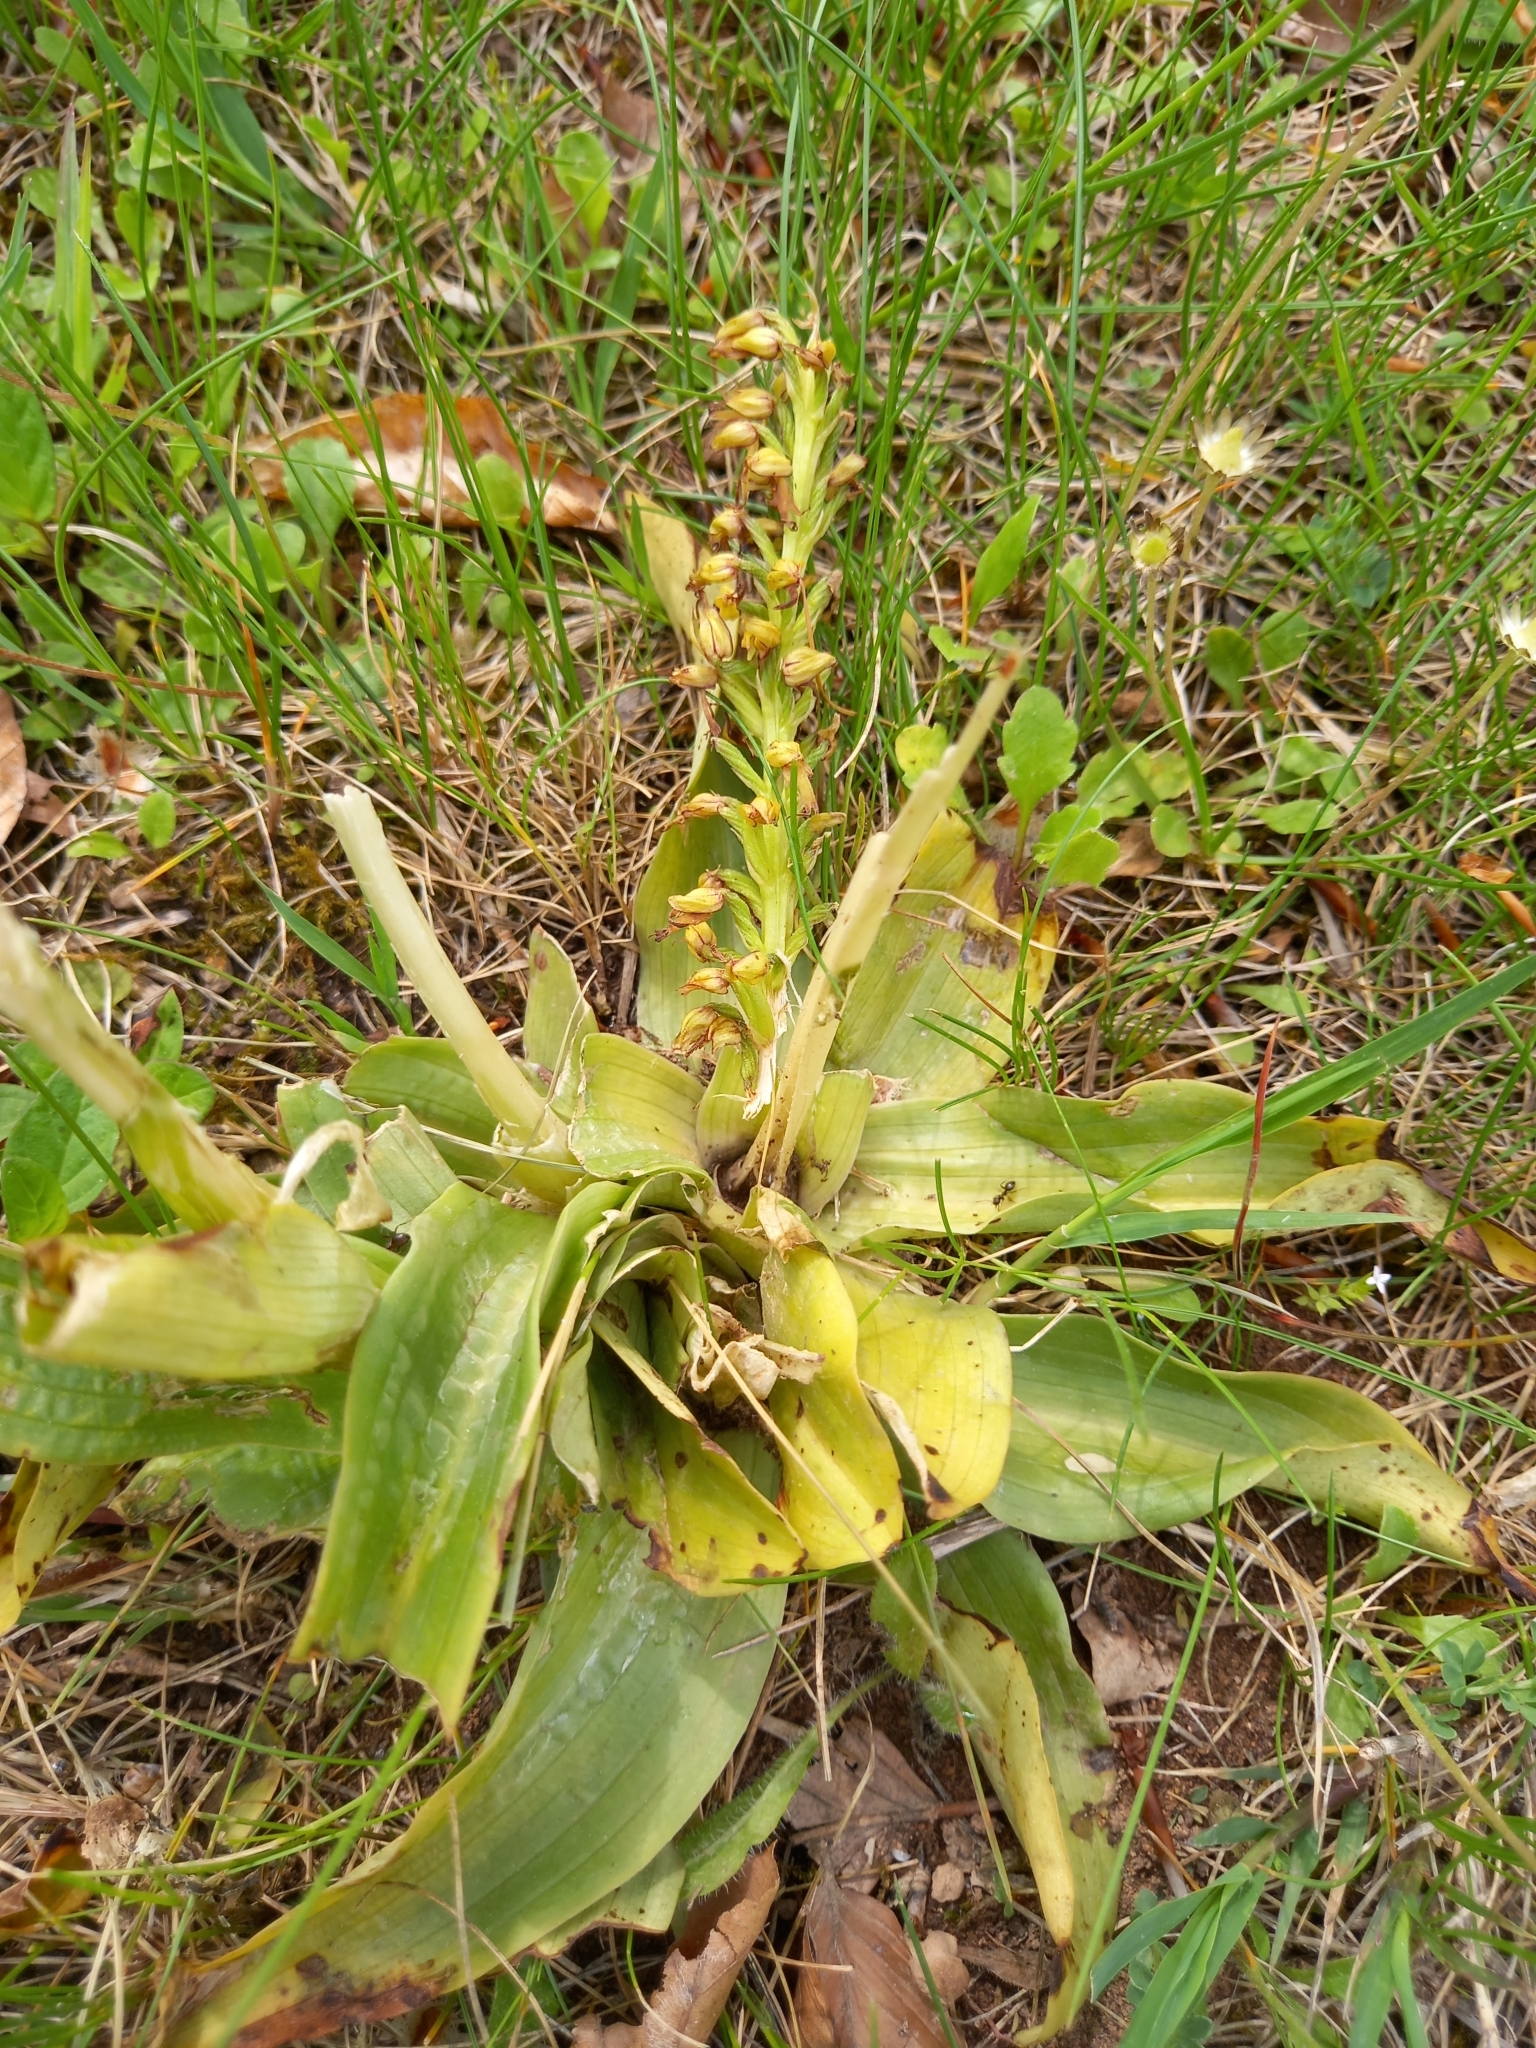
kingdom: Plantae
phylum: Tracheophyta
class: Liliopsida
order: Asparagales
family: Orchidaceae
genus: Orchis
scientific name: Orchis anthropophora
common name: Man orchid
